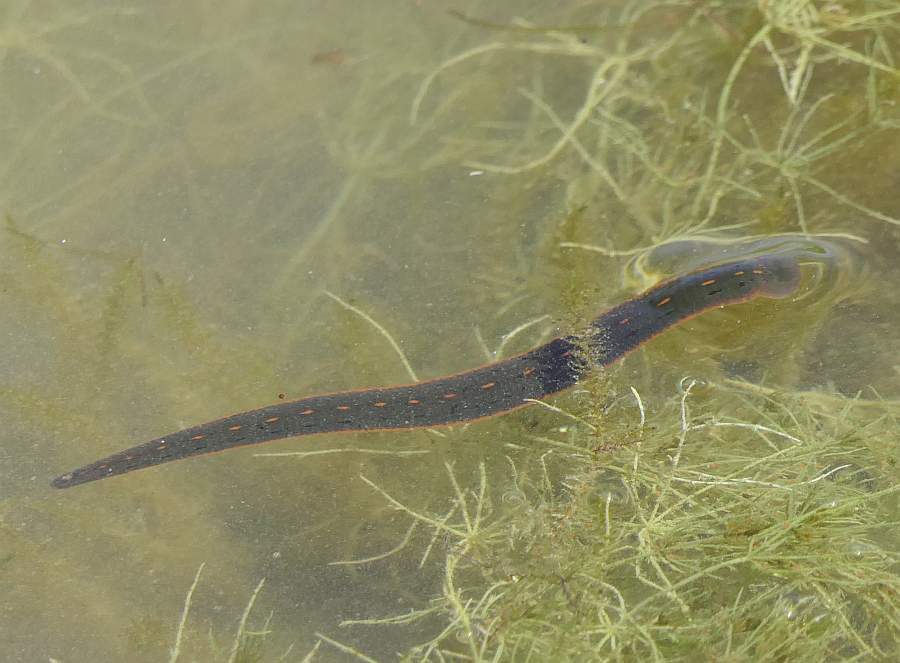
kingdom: Animalia
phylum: Annelida
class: Clitellata
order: Arhynchobdellida
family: Hirudinidae
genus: Macrobdella
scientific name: Macrobdella decora
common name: North american leech
